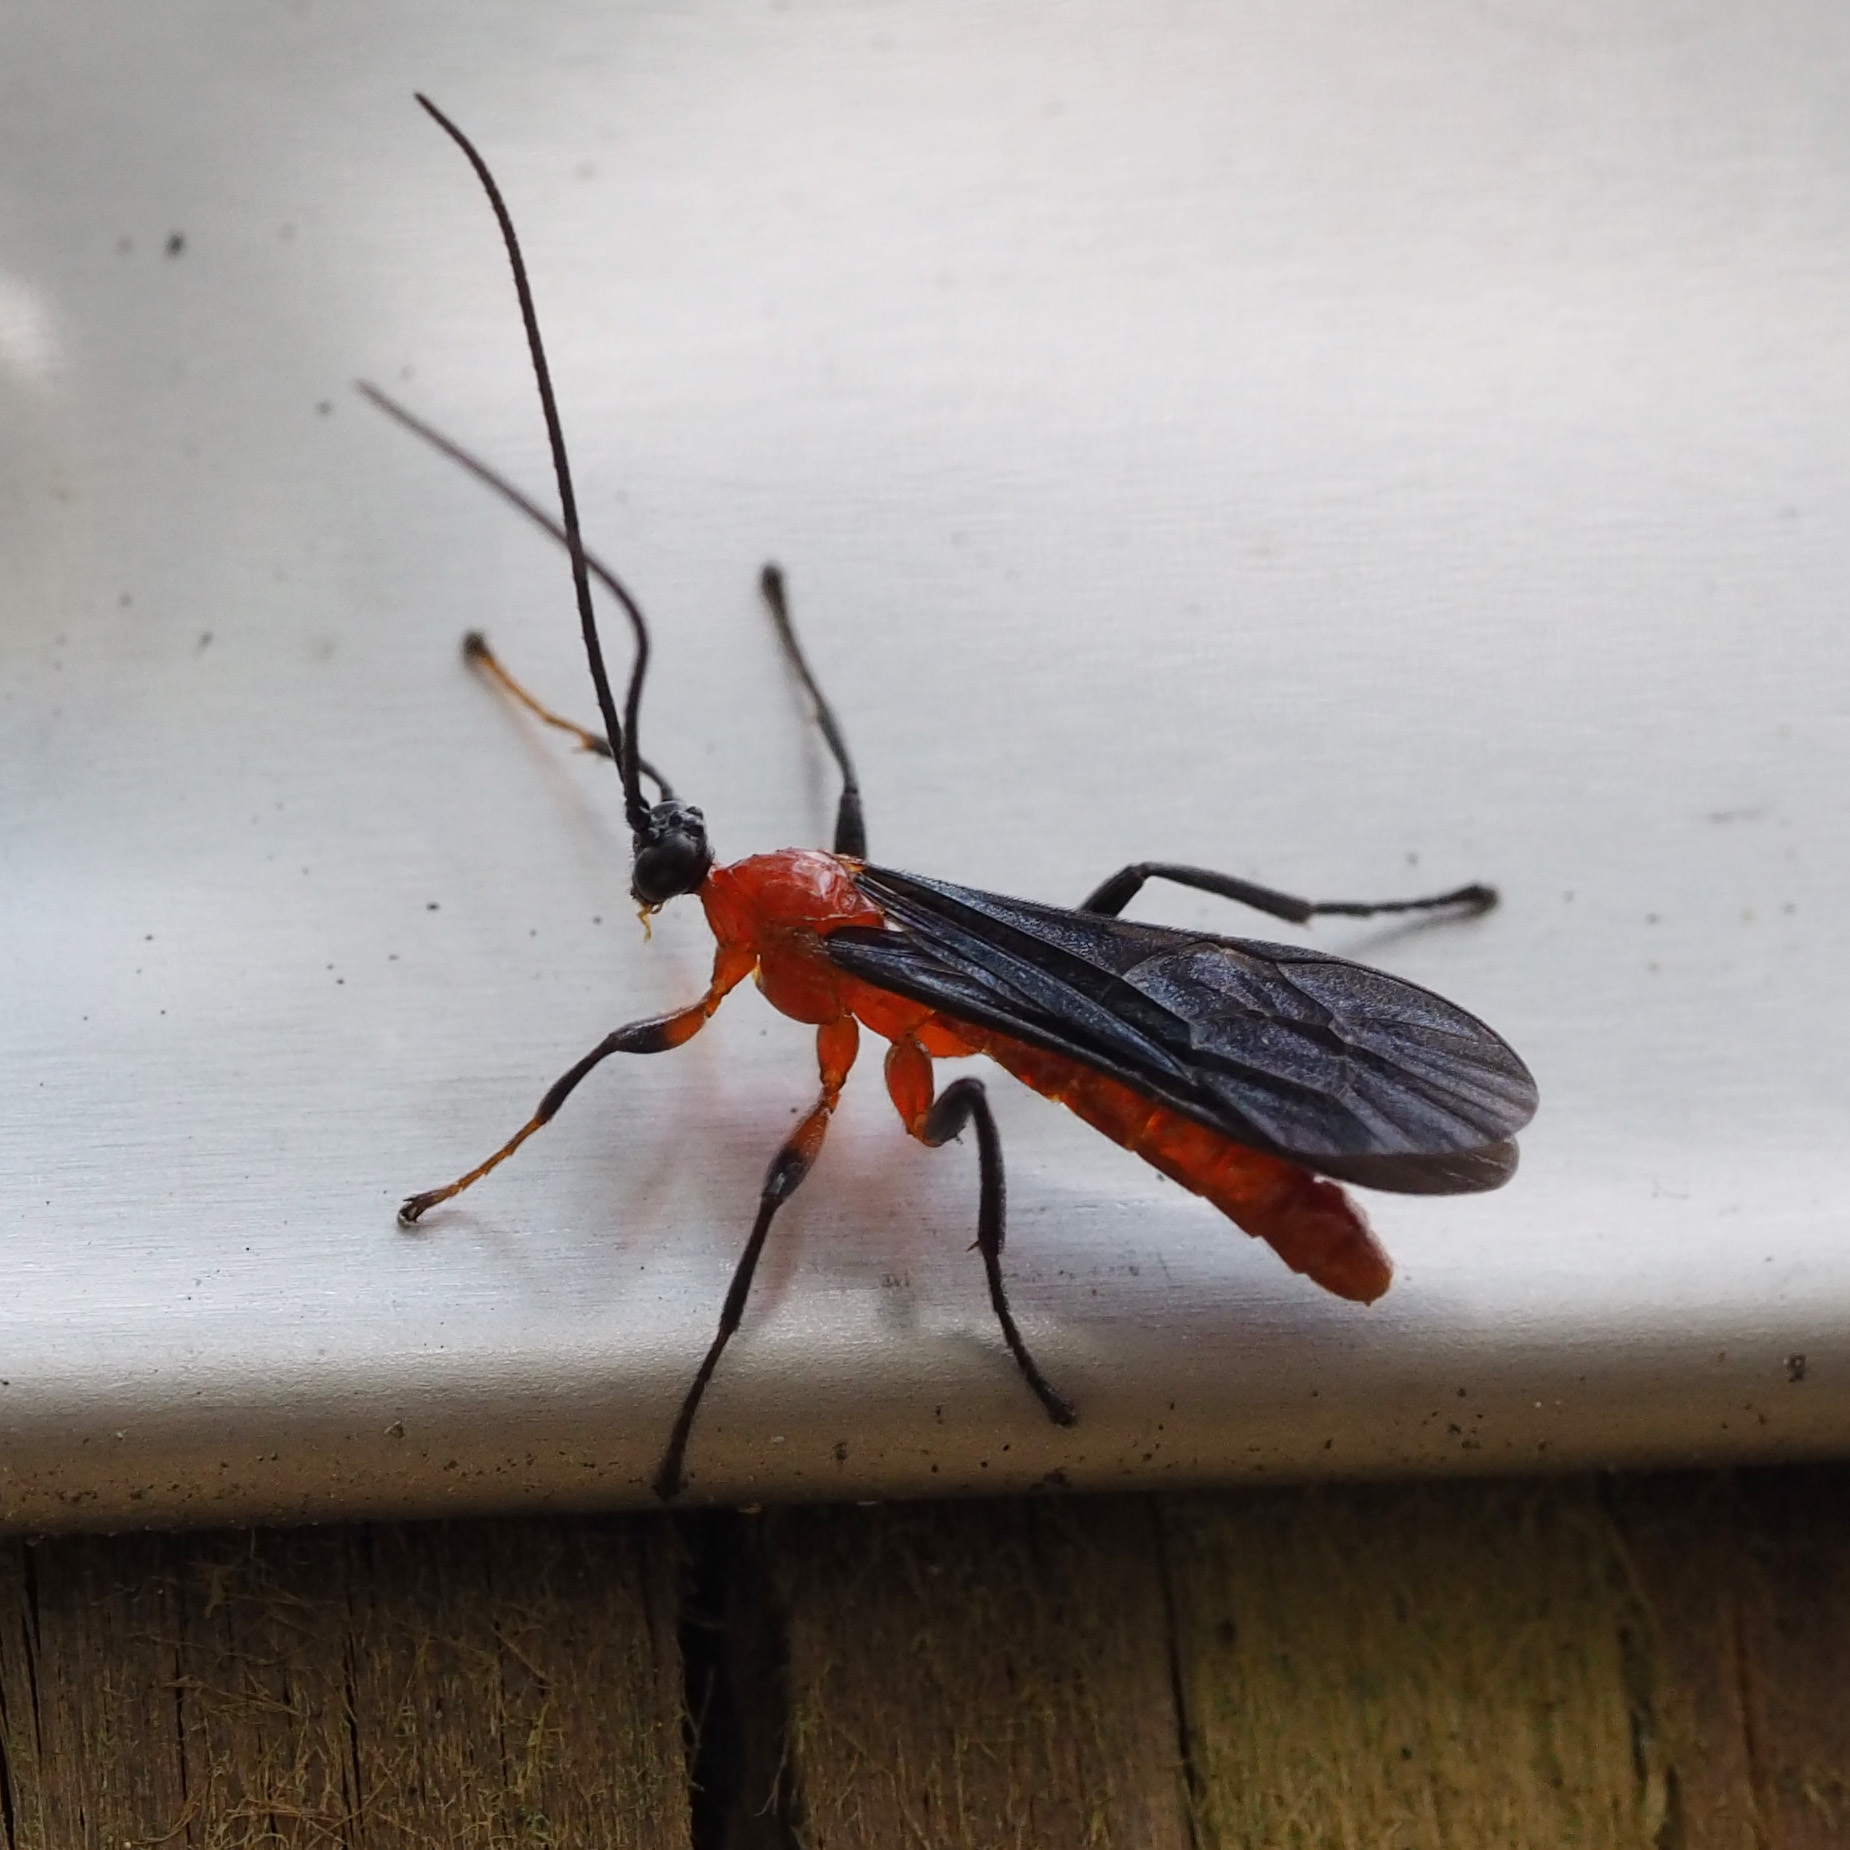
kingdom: Animalia
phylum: Arthropoda
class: Insecta
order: Hymenoptera
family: Ichneumonidae
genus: Acrotaphus
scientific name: Acrotaphus fuscipennis
